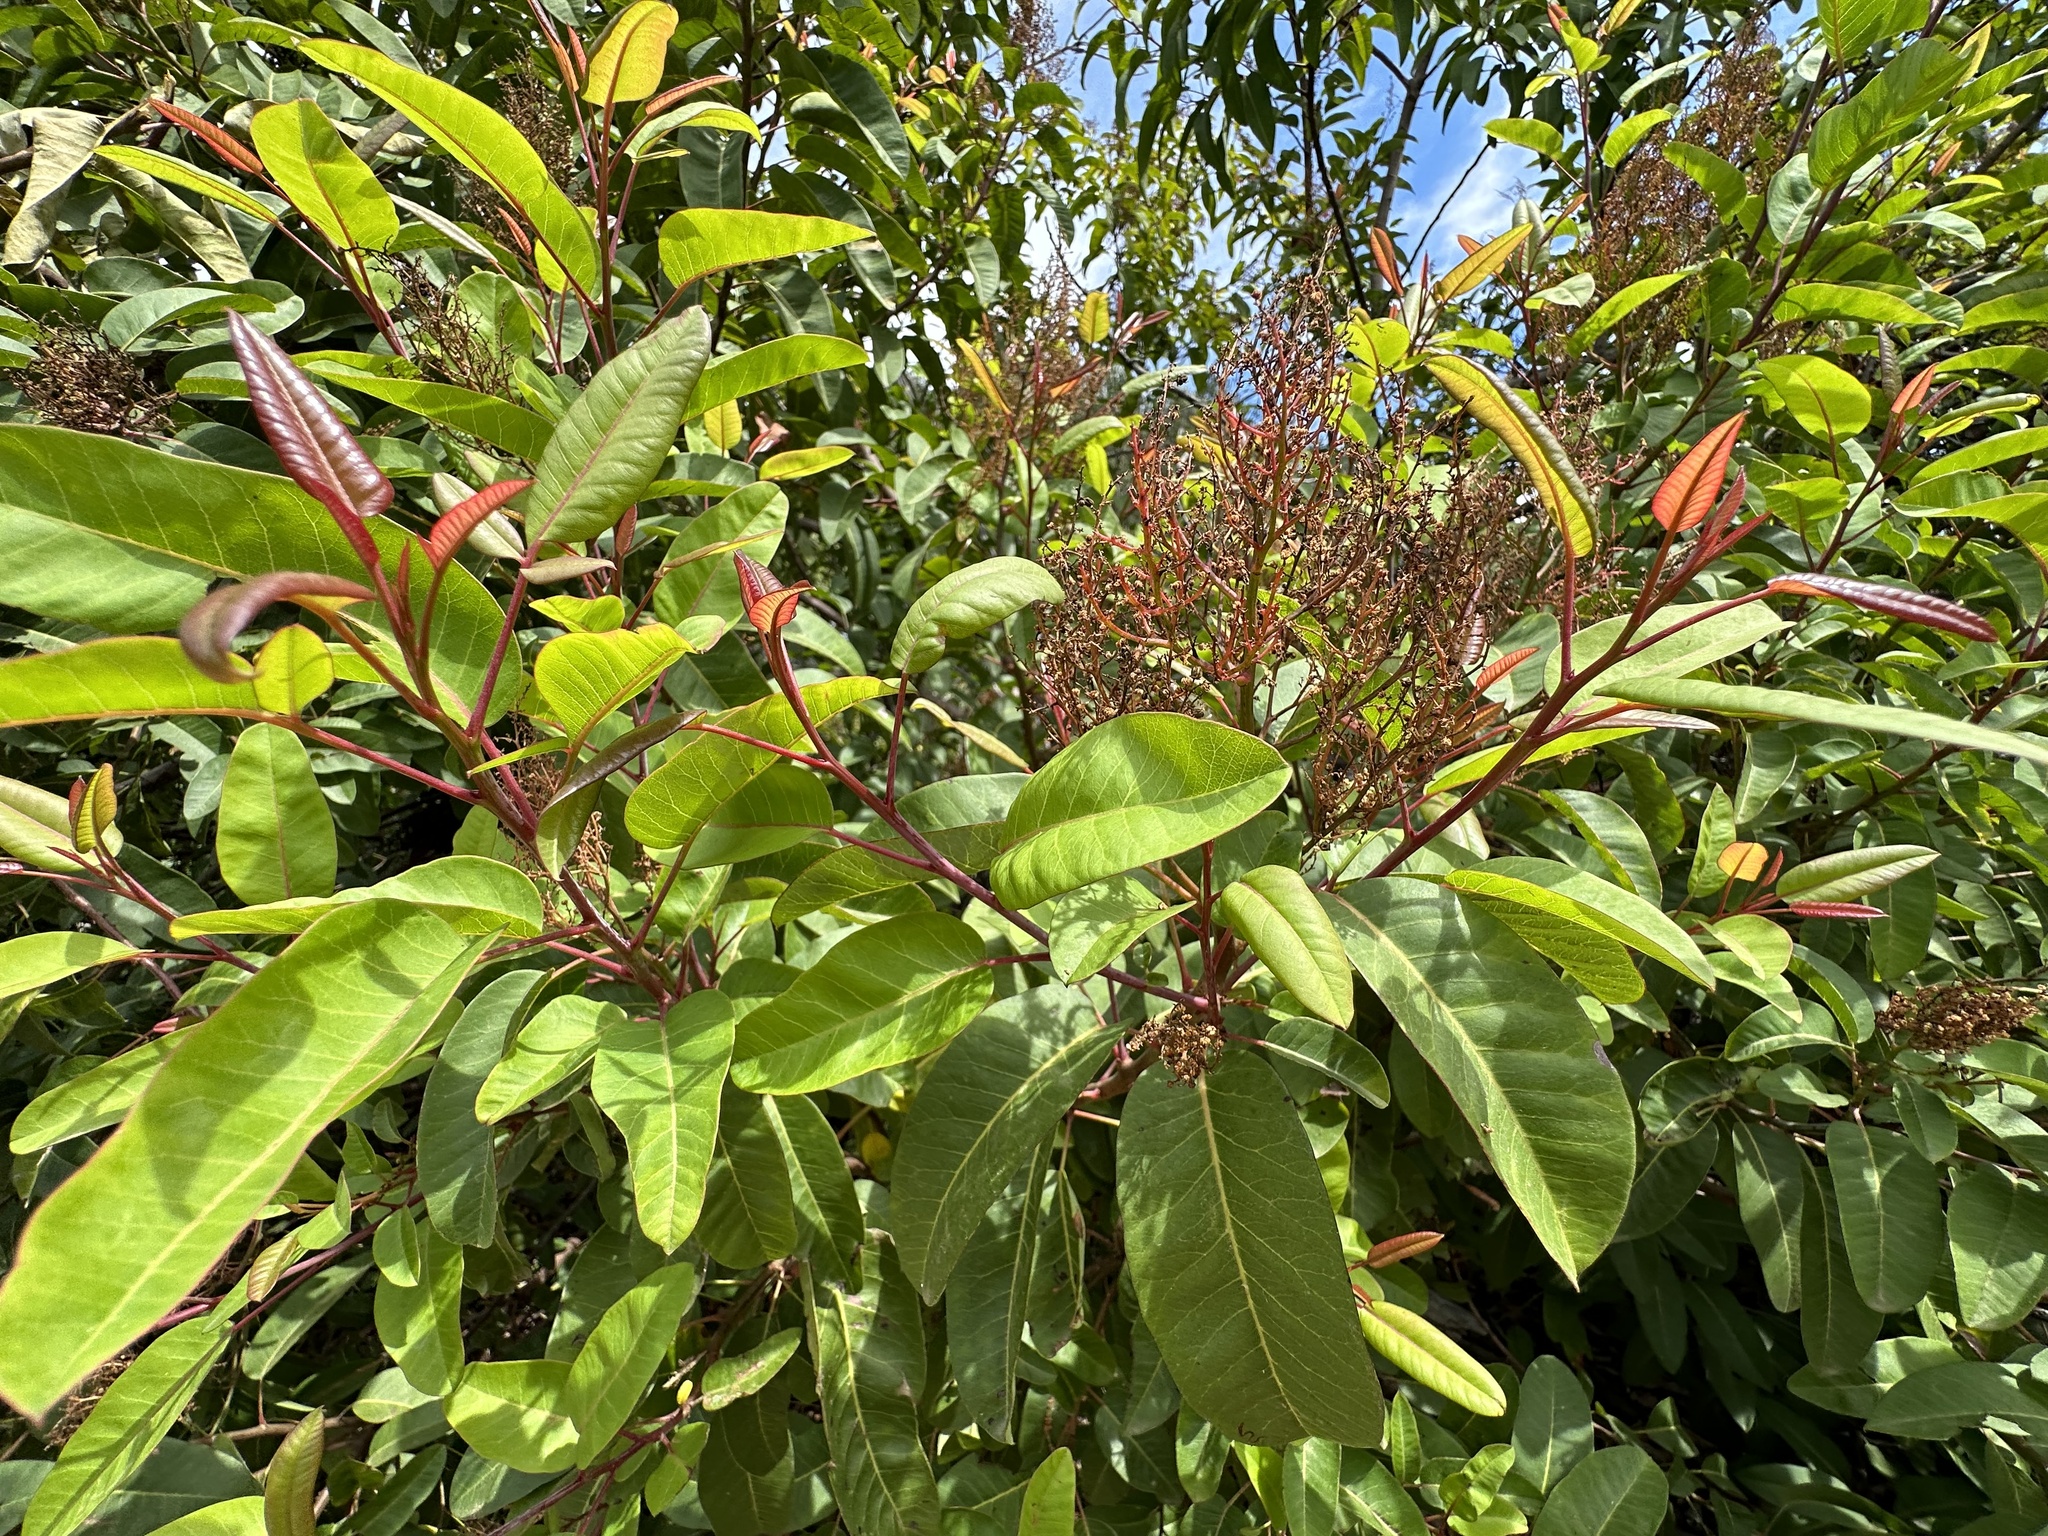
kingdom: Plantae
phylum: Tracheophyta
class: Magnoliopsida
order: Sapindales
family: Anacardiaceae
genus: Malosma
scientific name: Malosma laurina
